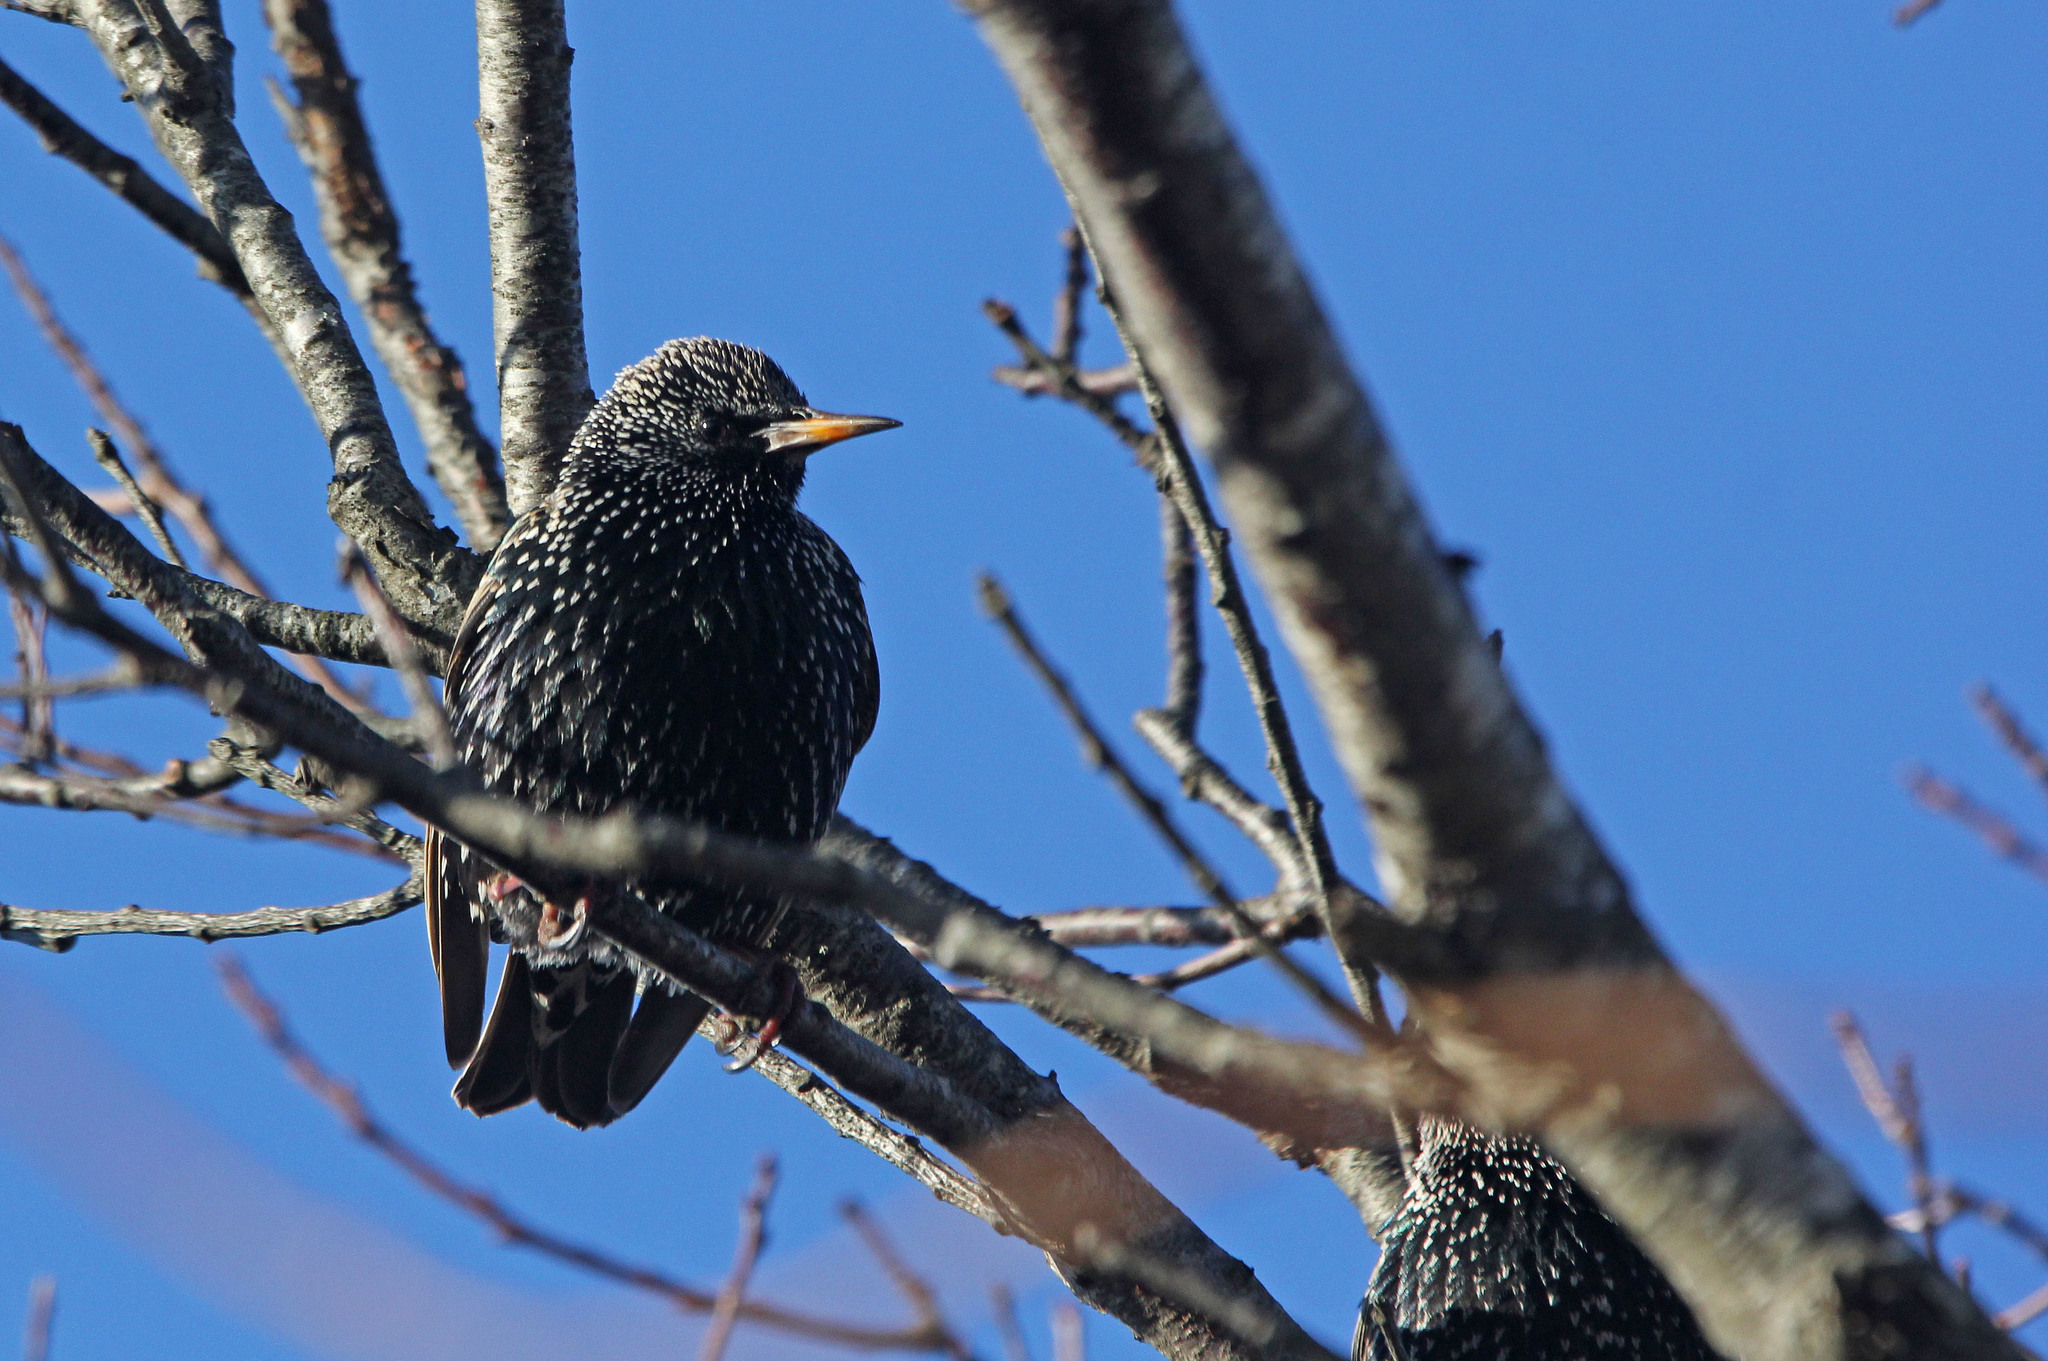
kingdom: Animalia
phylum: Chordata
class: Aves
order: Passeriformes
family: Sturnidae
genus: Sturnus
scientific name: Sturnus vulgaris
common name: Common starling
